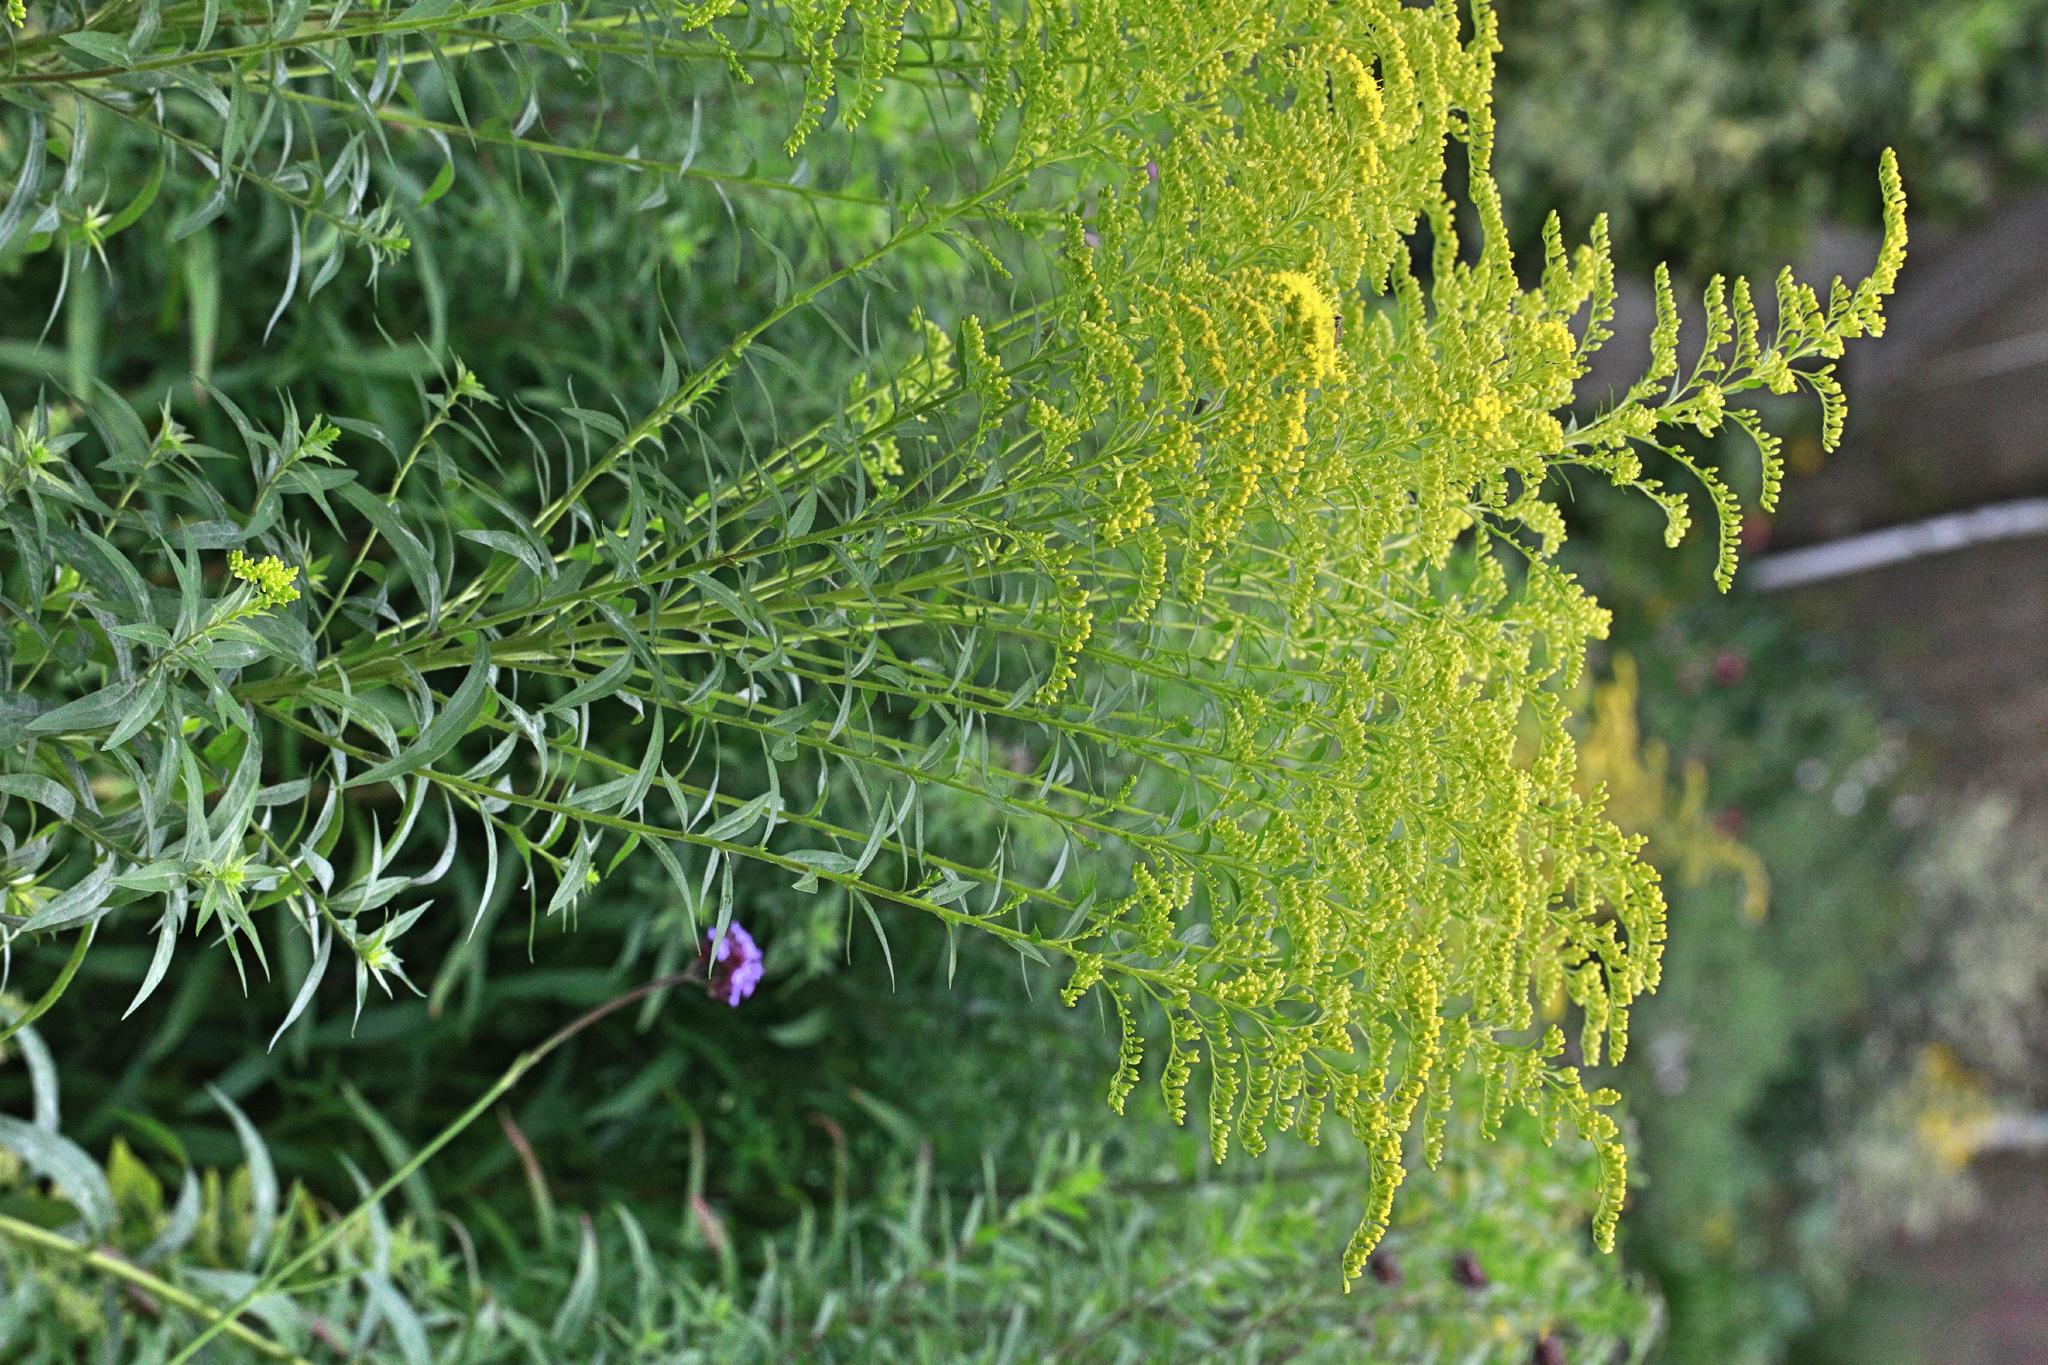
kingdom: Plantae
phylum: Tracheophyta
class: Magnoliopsida
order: Asterales
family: Asteraceae
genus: Solidago
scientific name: Solidago canadensis
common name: Canada goldenrod
